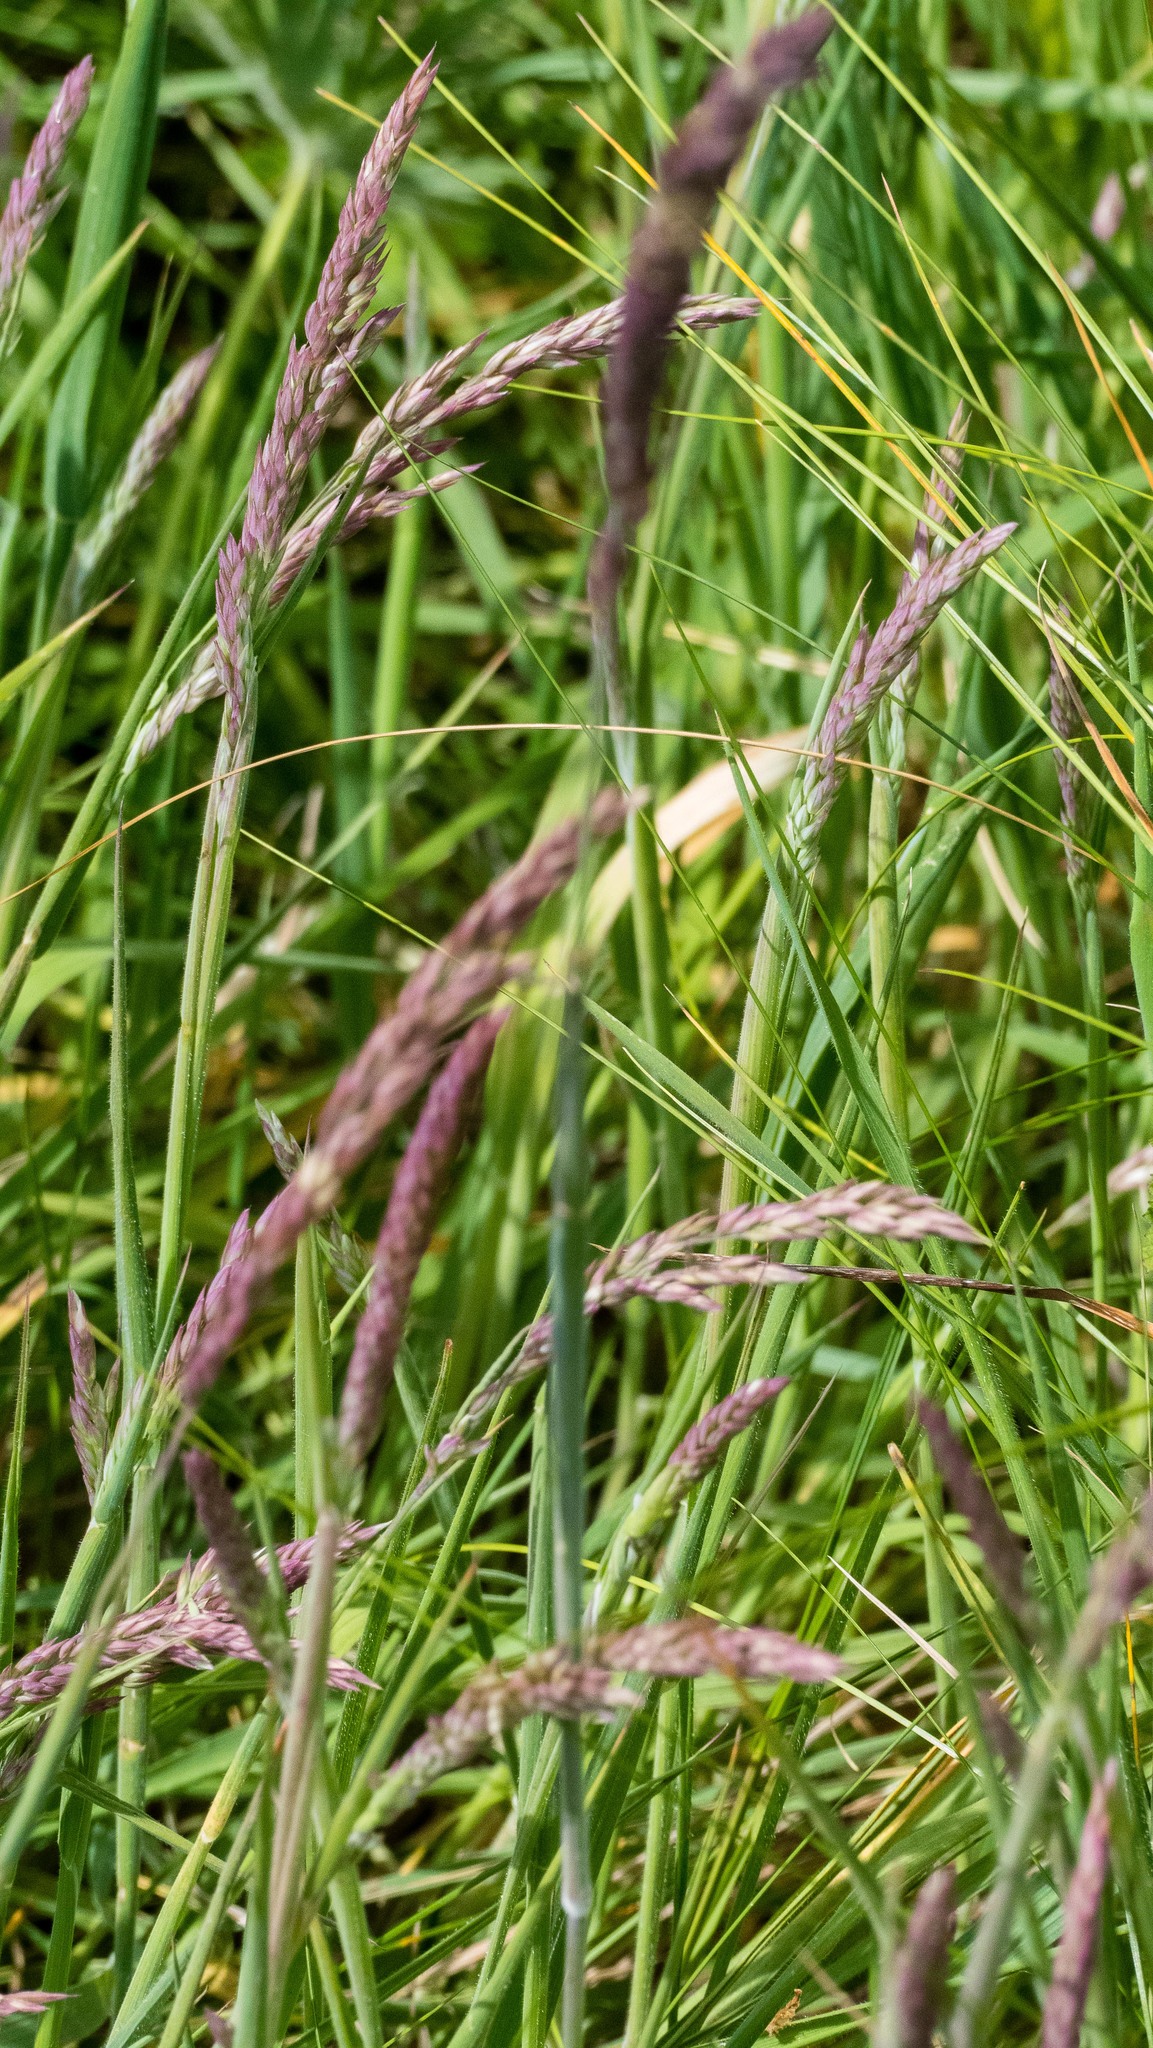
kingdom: Plantae
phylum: Tracheophyta
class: Liliopsida
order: Poales
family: Poaceae
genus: Holcus
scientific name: Holcus lanatus
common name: Yorkshire-fog
